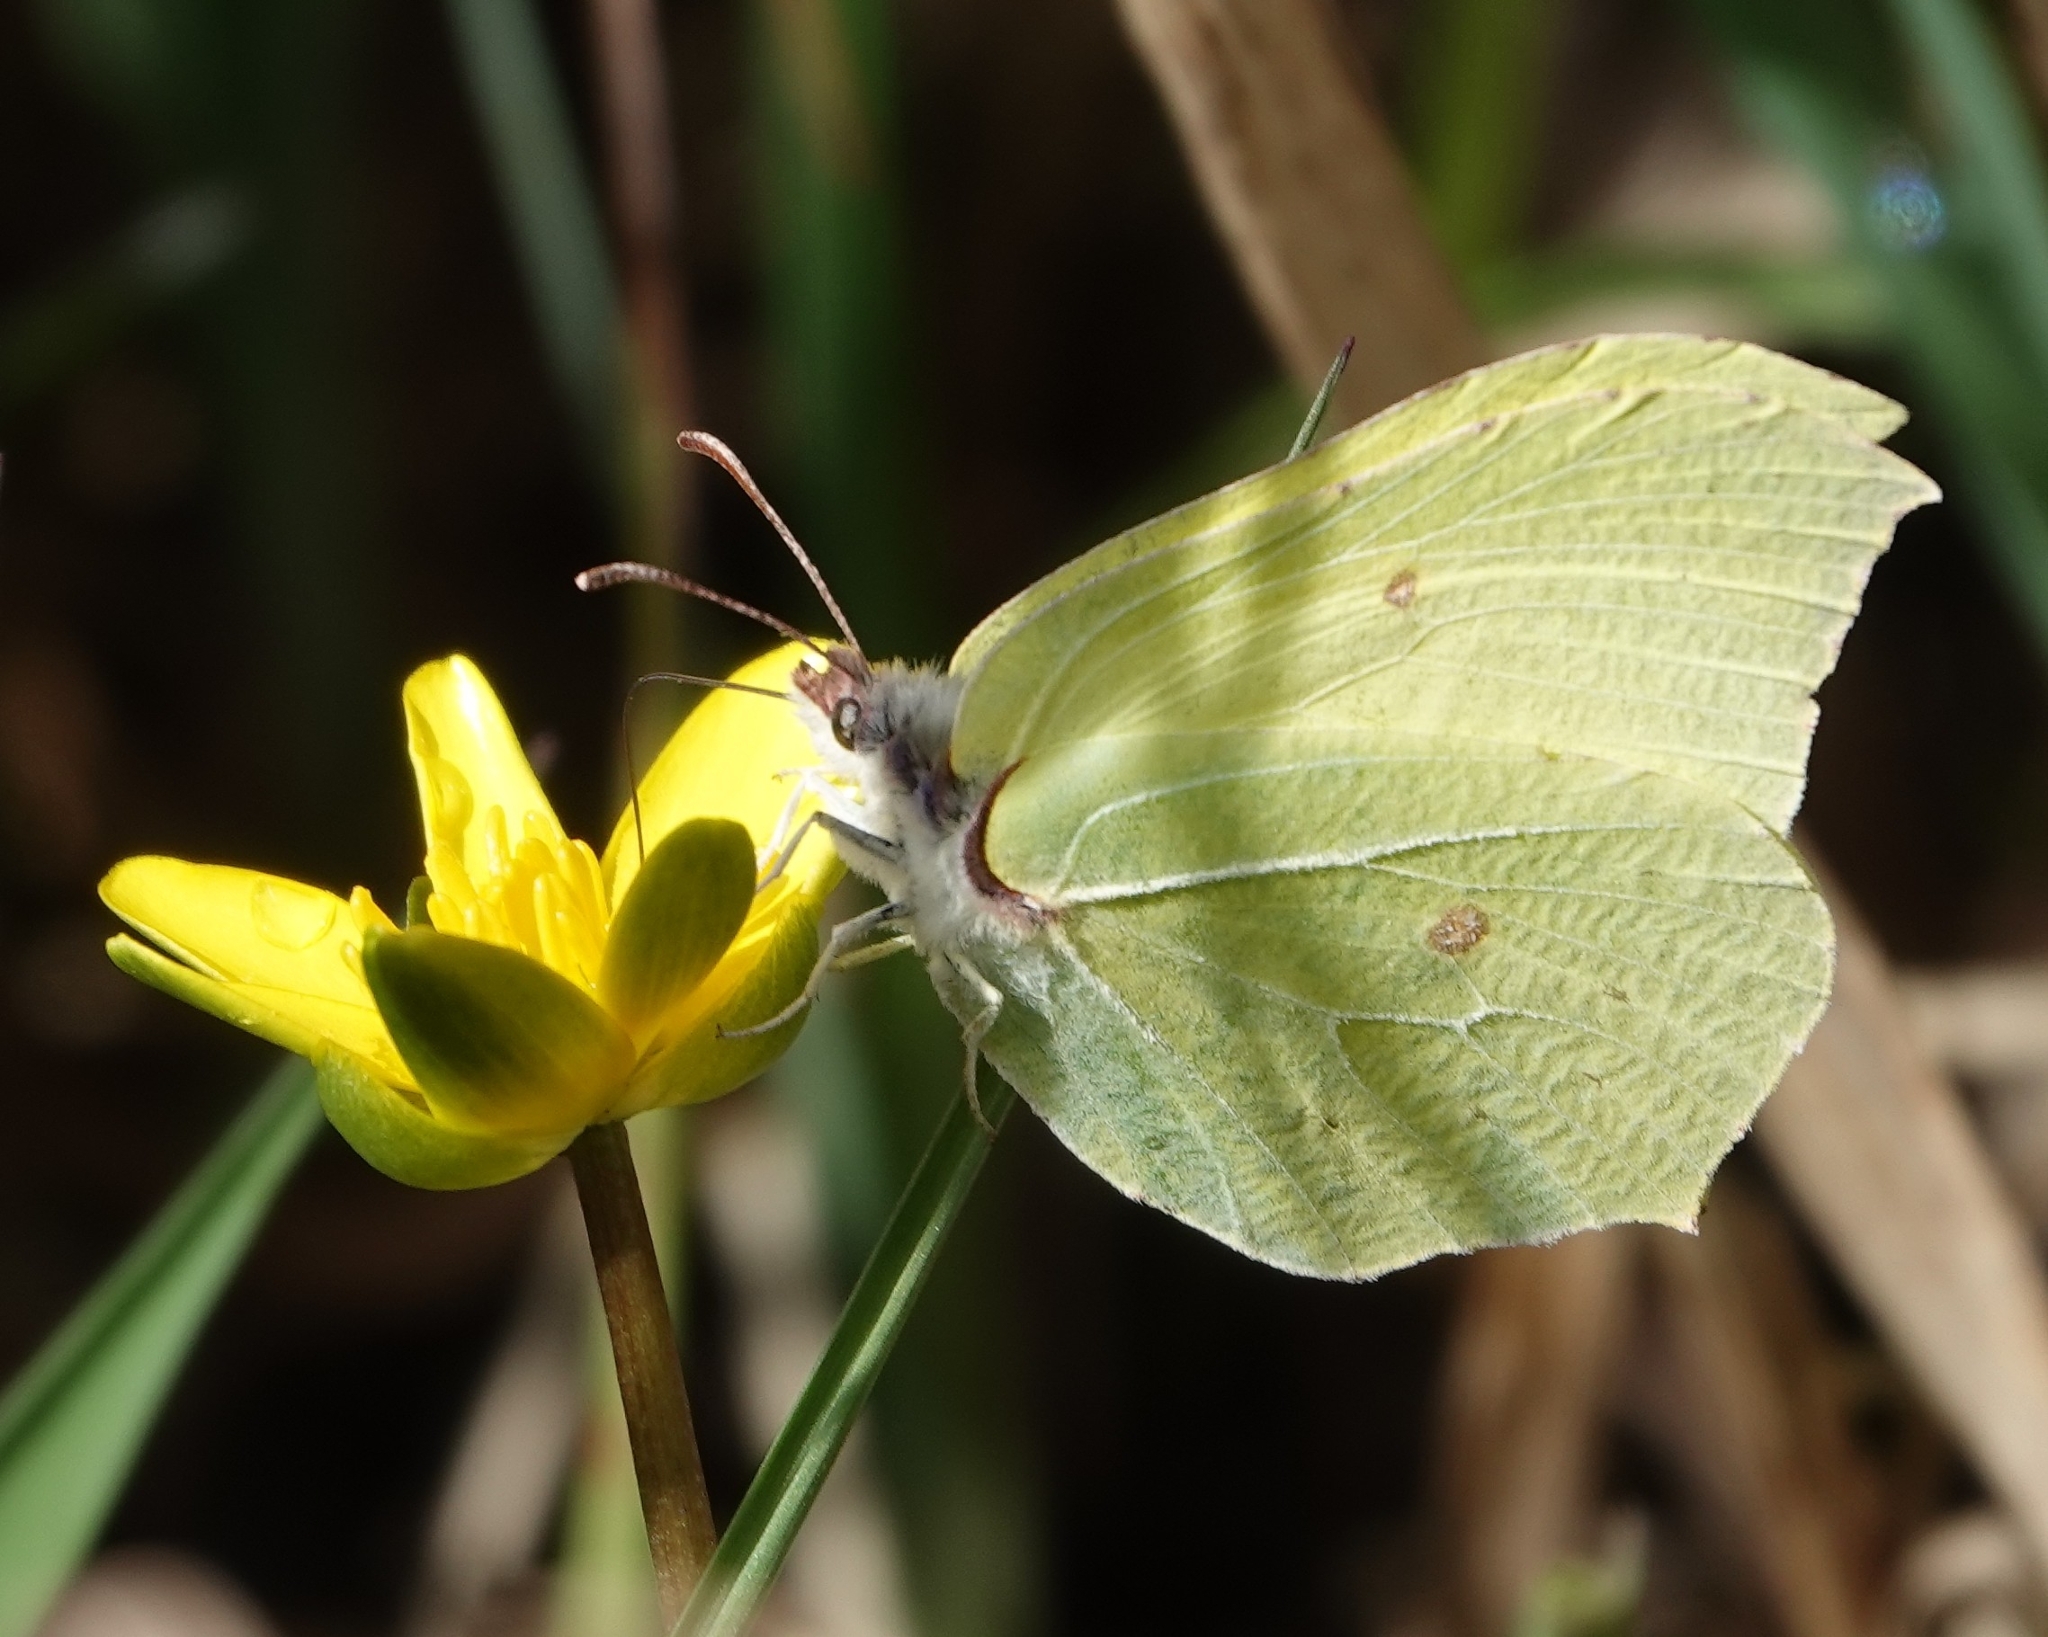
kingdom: Animalia
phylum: Arthropoda
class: Insecta
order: Lepidoptera
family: Pieridae
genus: Gonepteryx
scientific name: Gonepteryx rhamni
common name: Brimstone
